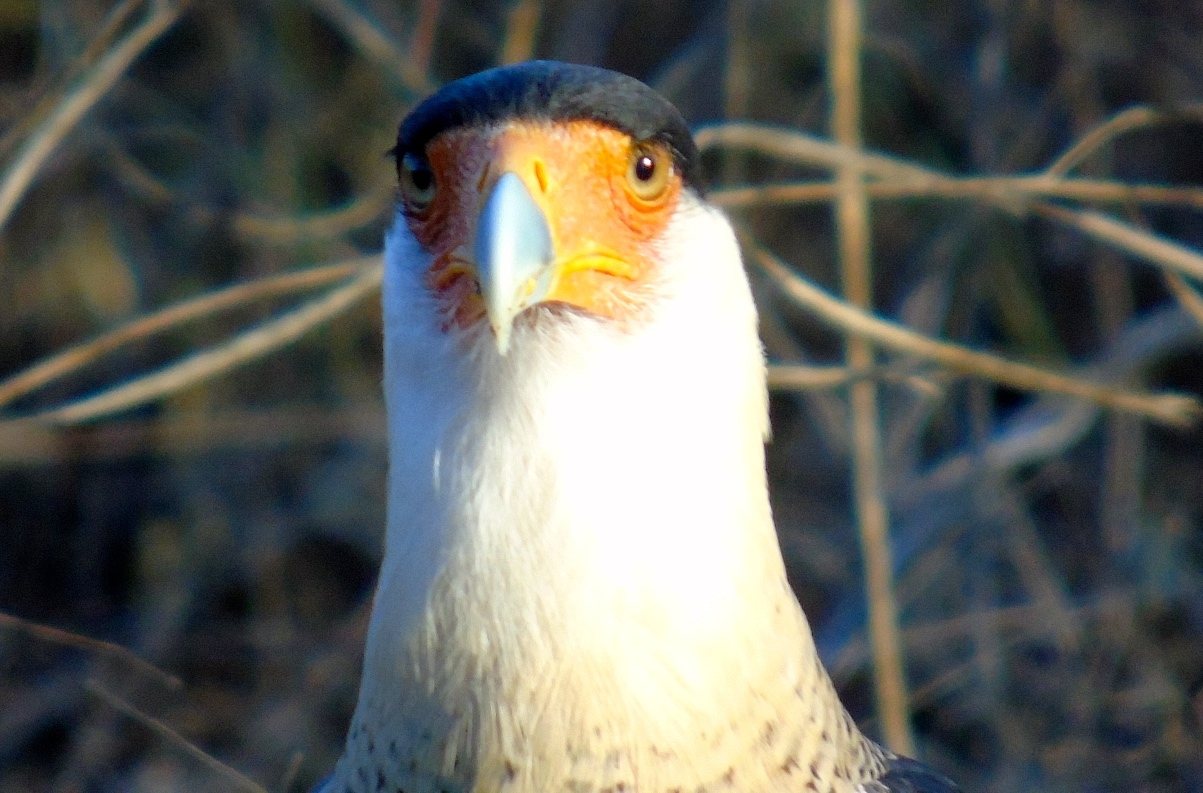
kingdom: Animalia
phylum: Chordata
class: Aves
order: Falconiformes
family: Falconidae
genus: Caracara
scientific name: Caracara plancus
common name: Southern caracara
